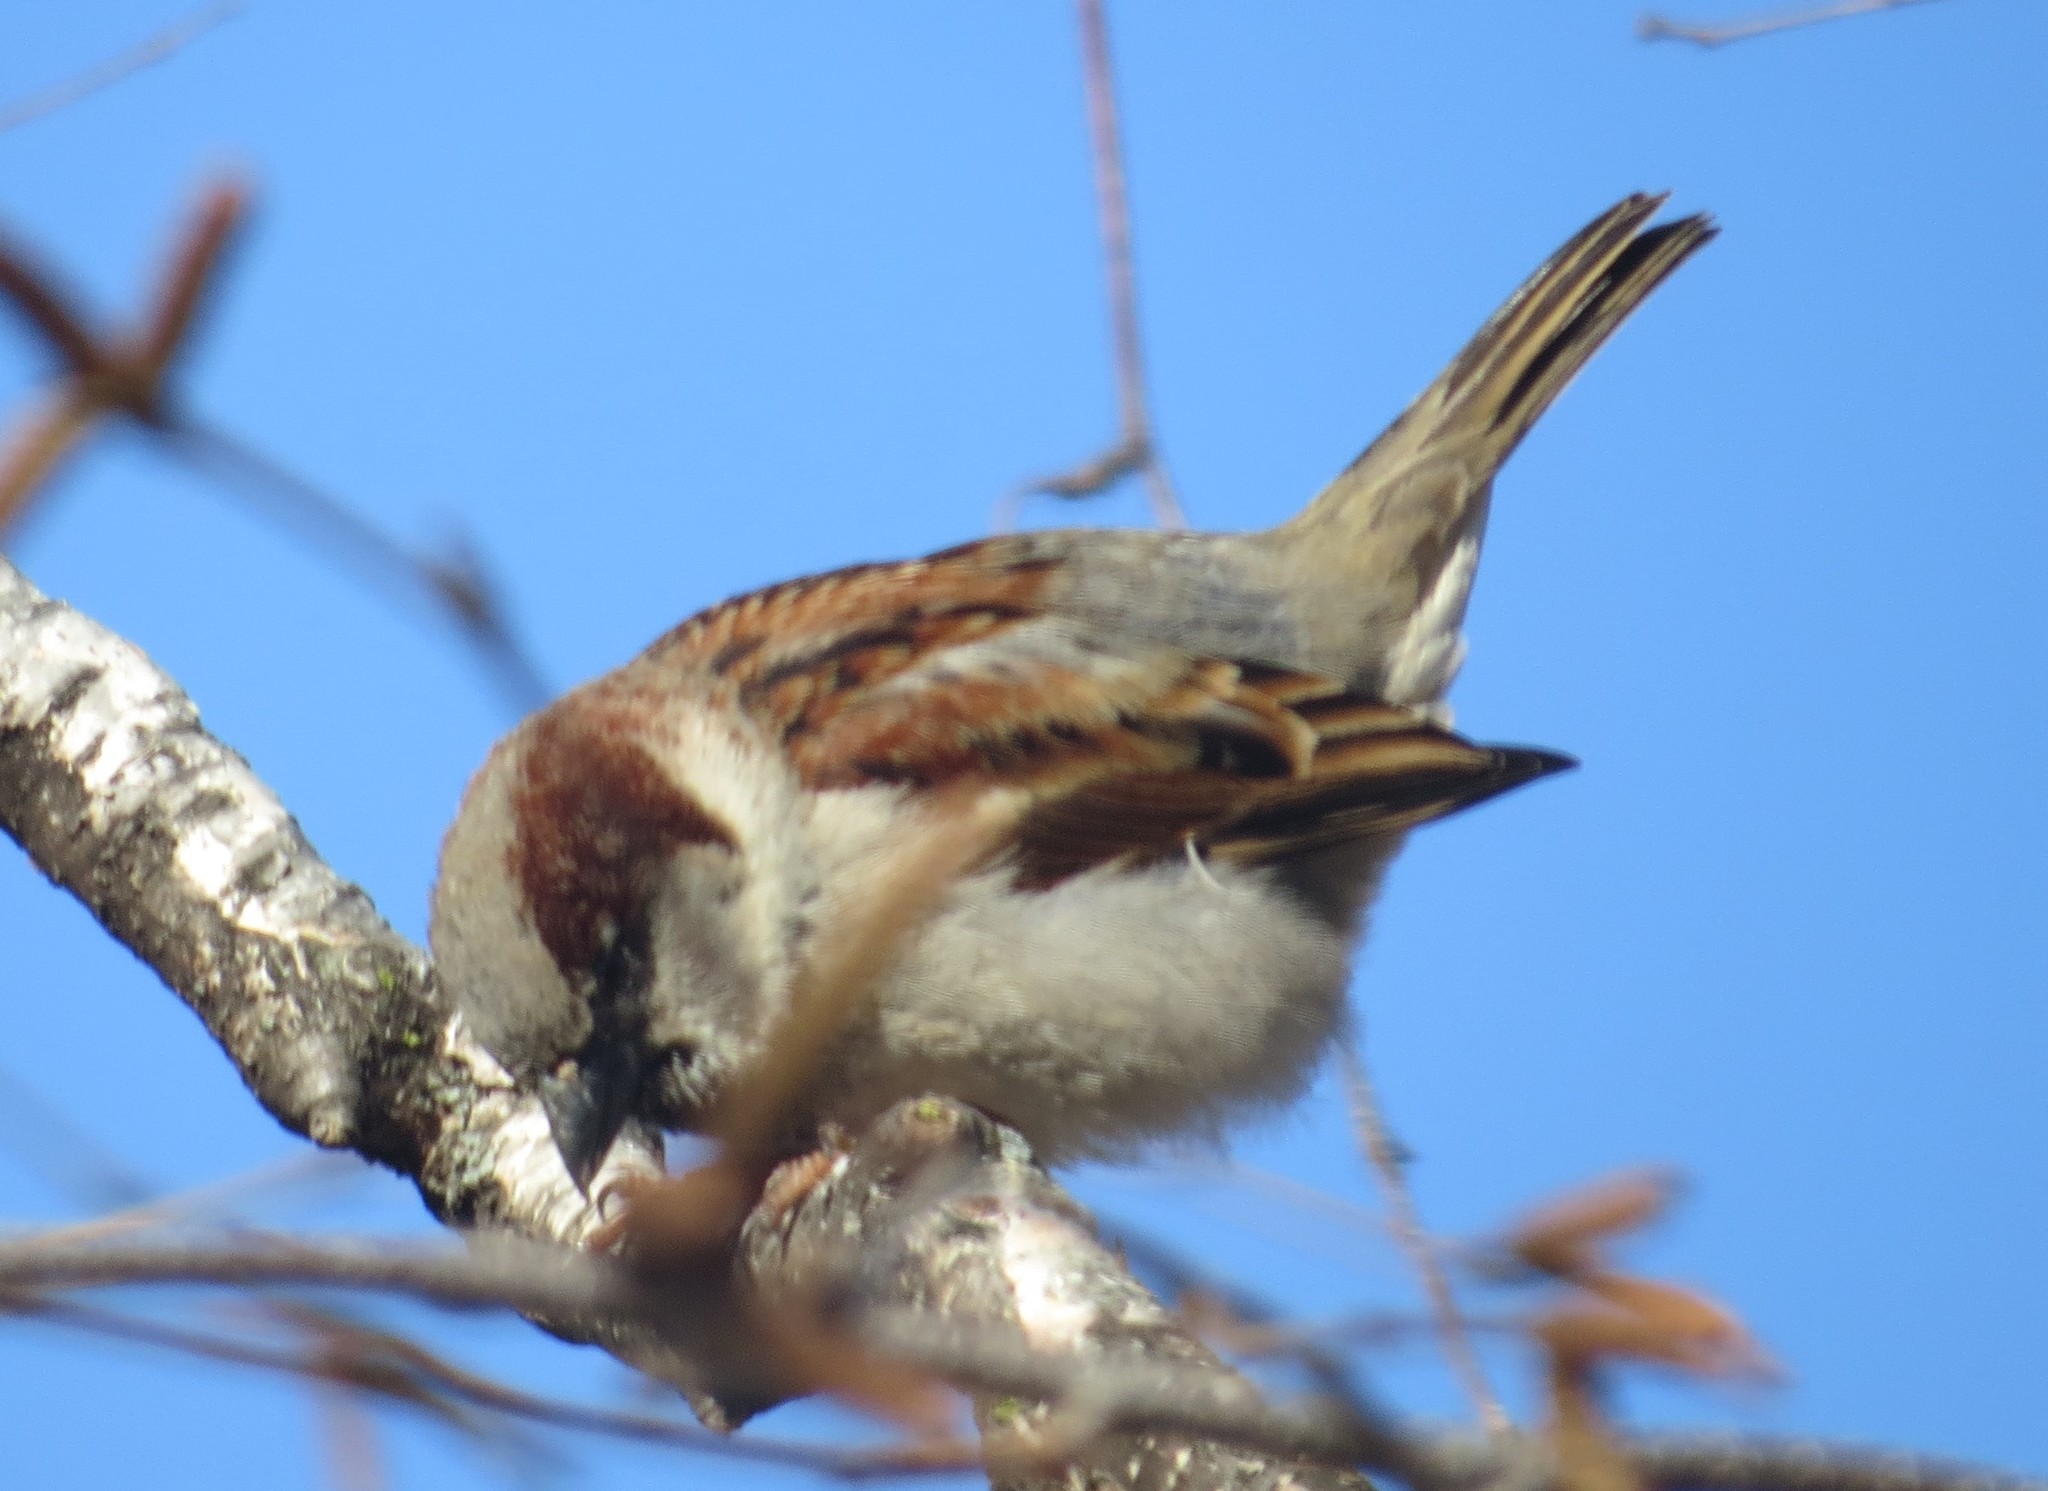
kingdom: Animalia
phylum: Chordata
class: Aves
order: Passeriformes
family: Passeridae
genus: Passer
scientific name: Passer domesticus
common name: House sparrow
